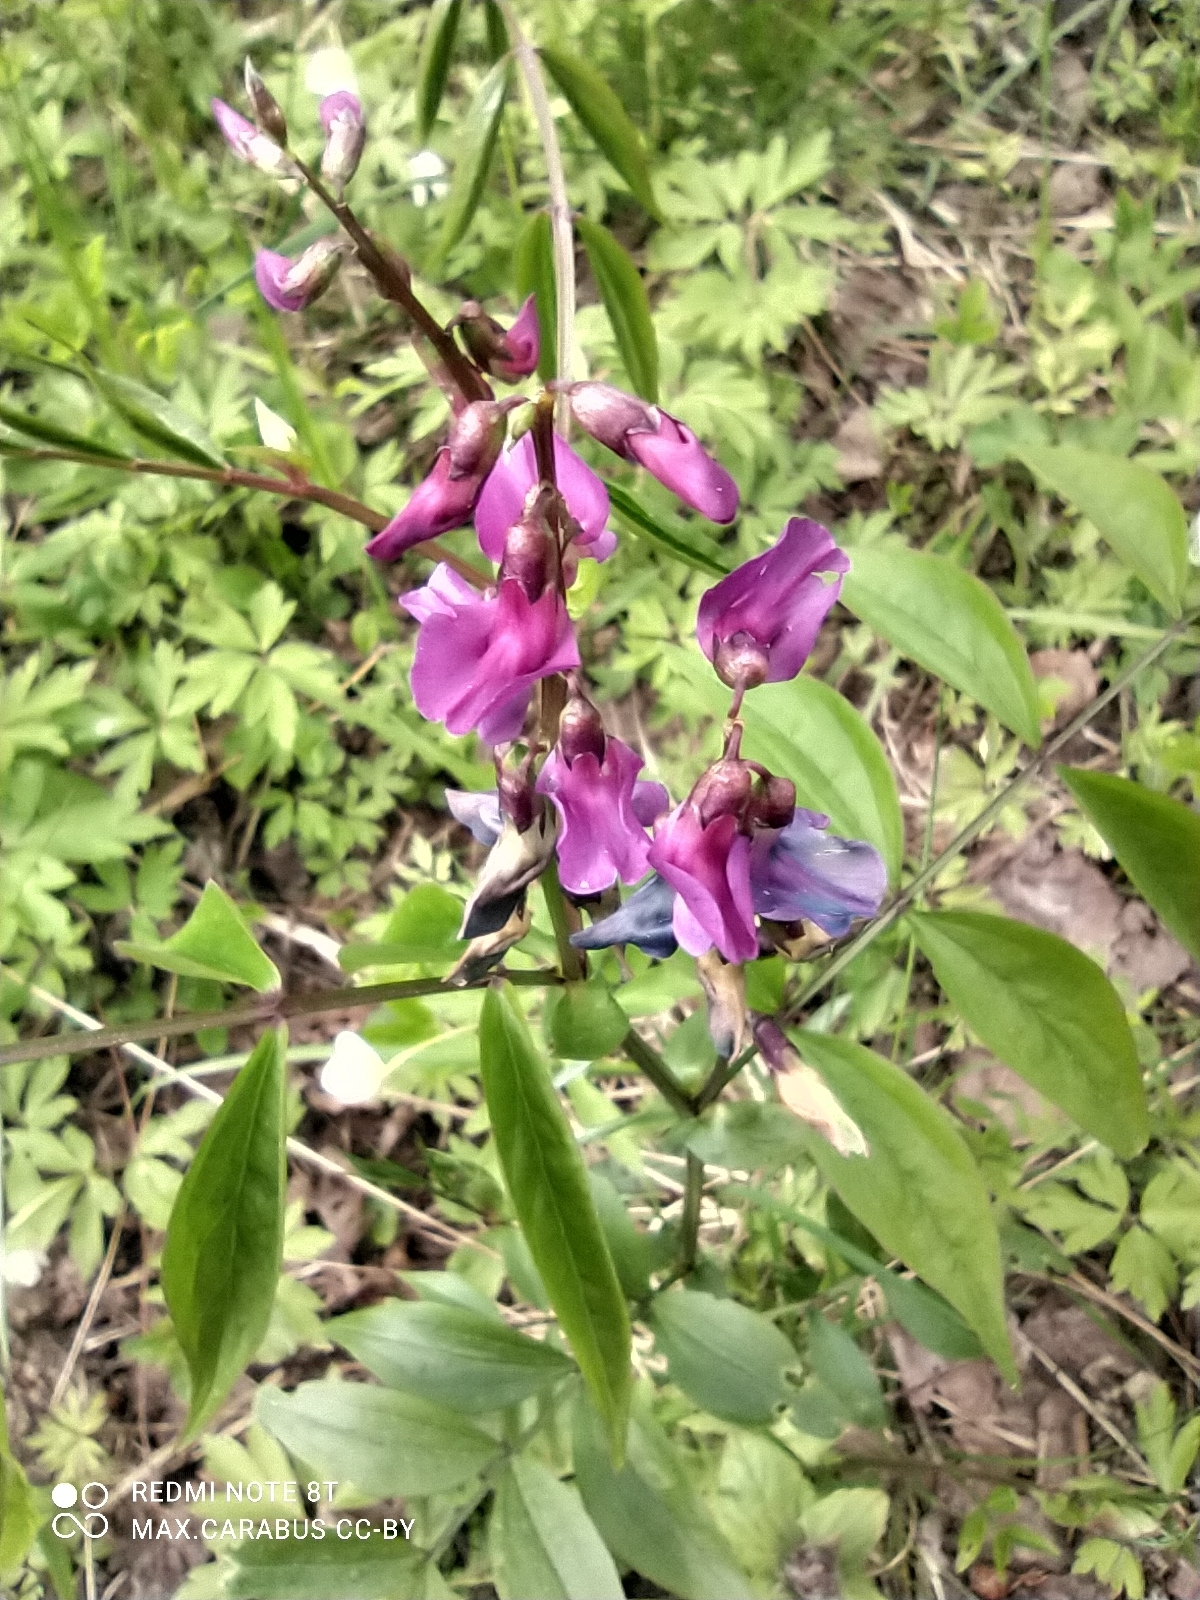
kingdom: Plantae
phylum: Tracheophyta
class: Magnoliopsida
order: Fabales
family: Fabaceae
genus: Lathyrus
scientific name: Lathyrus vernus
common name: Spring pea
